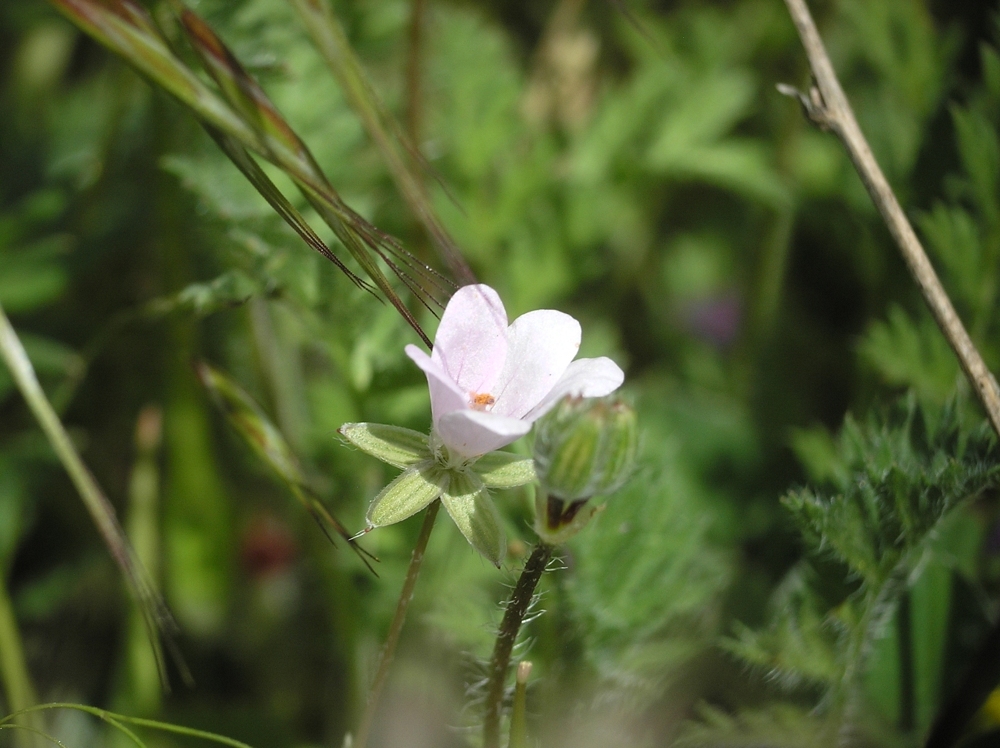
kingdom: Plantae
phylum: Tracheophyta
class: Magnoliopsida
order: Geraniales
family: Geraniaceae
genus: Erodium
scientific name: Erodium cicutarium
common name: Common stork's-bill
